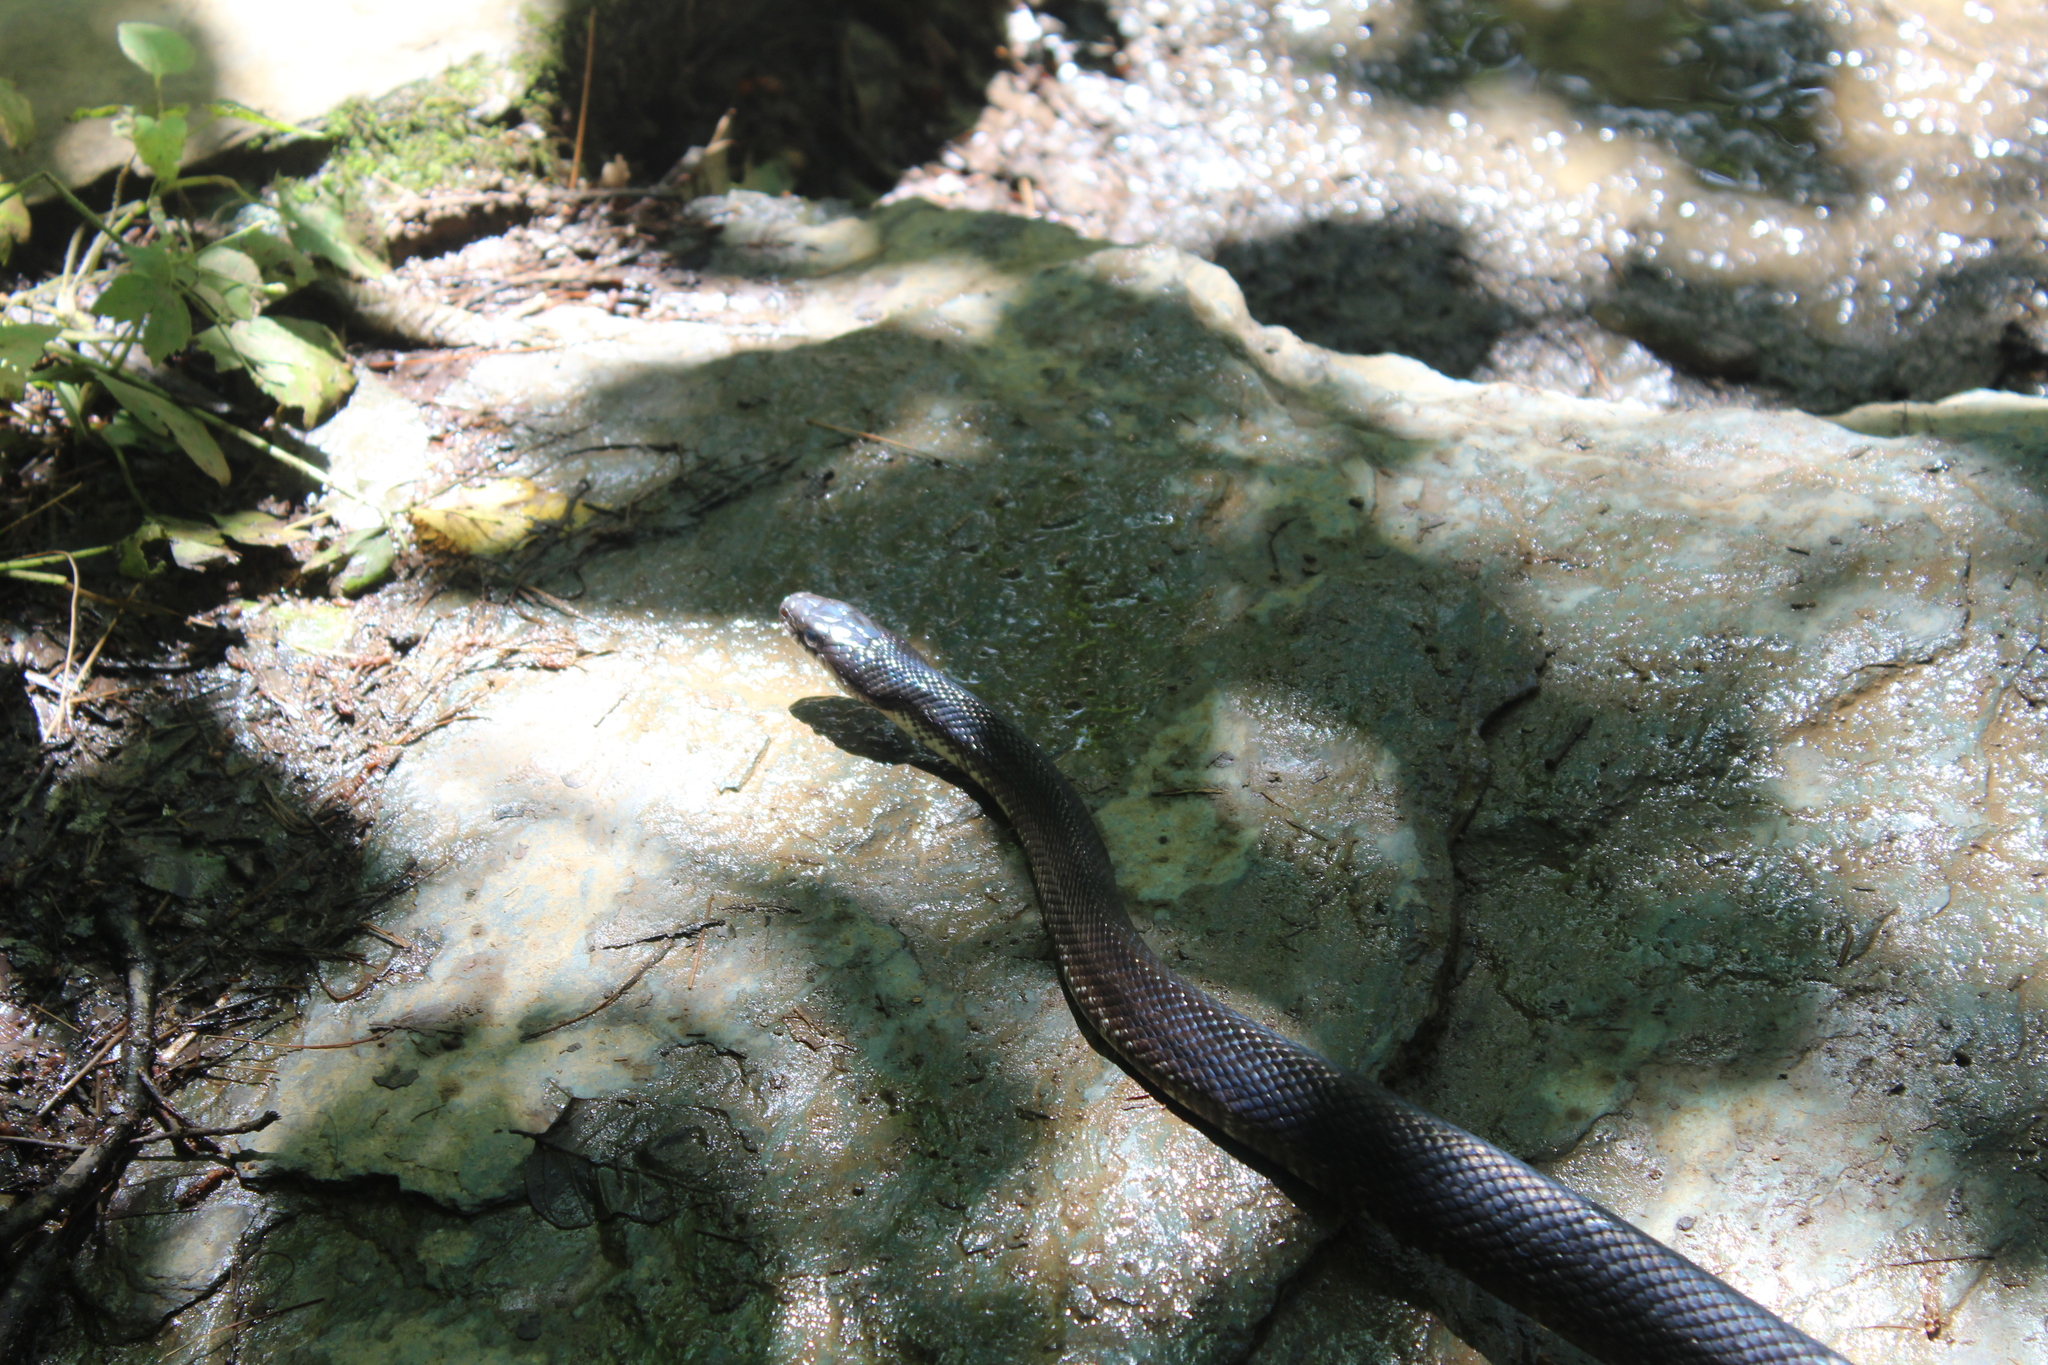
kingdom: Animalia
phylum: Chordata
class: Squamata
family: Colubridae
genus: Pantherophis
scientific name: Pantherophis alleghaniensis
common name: Eastern rat snake
